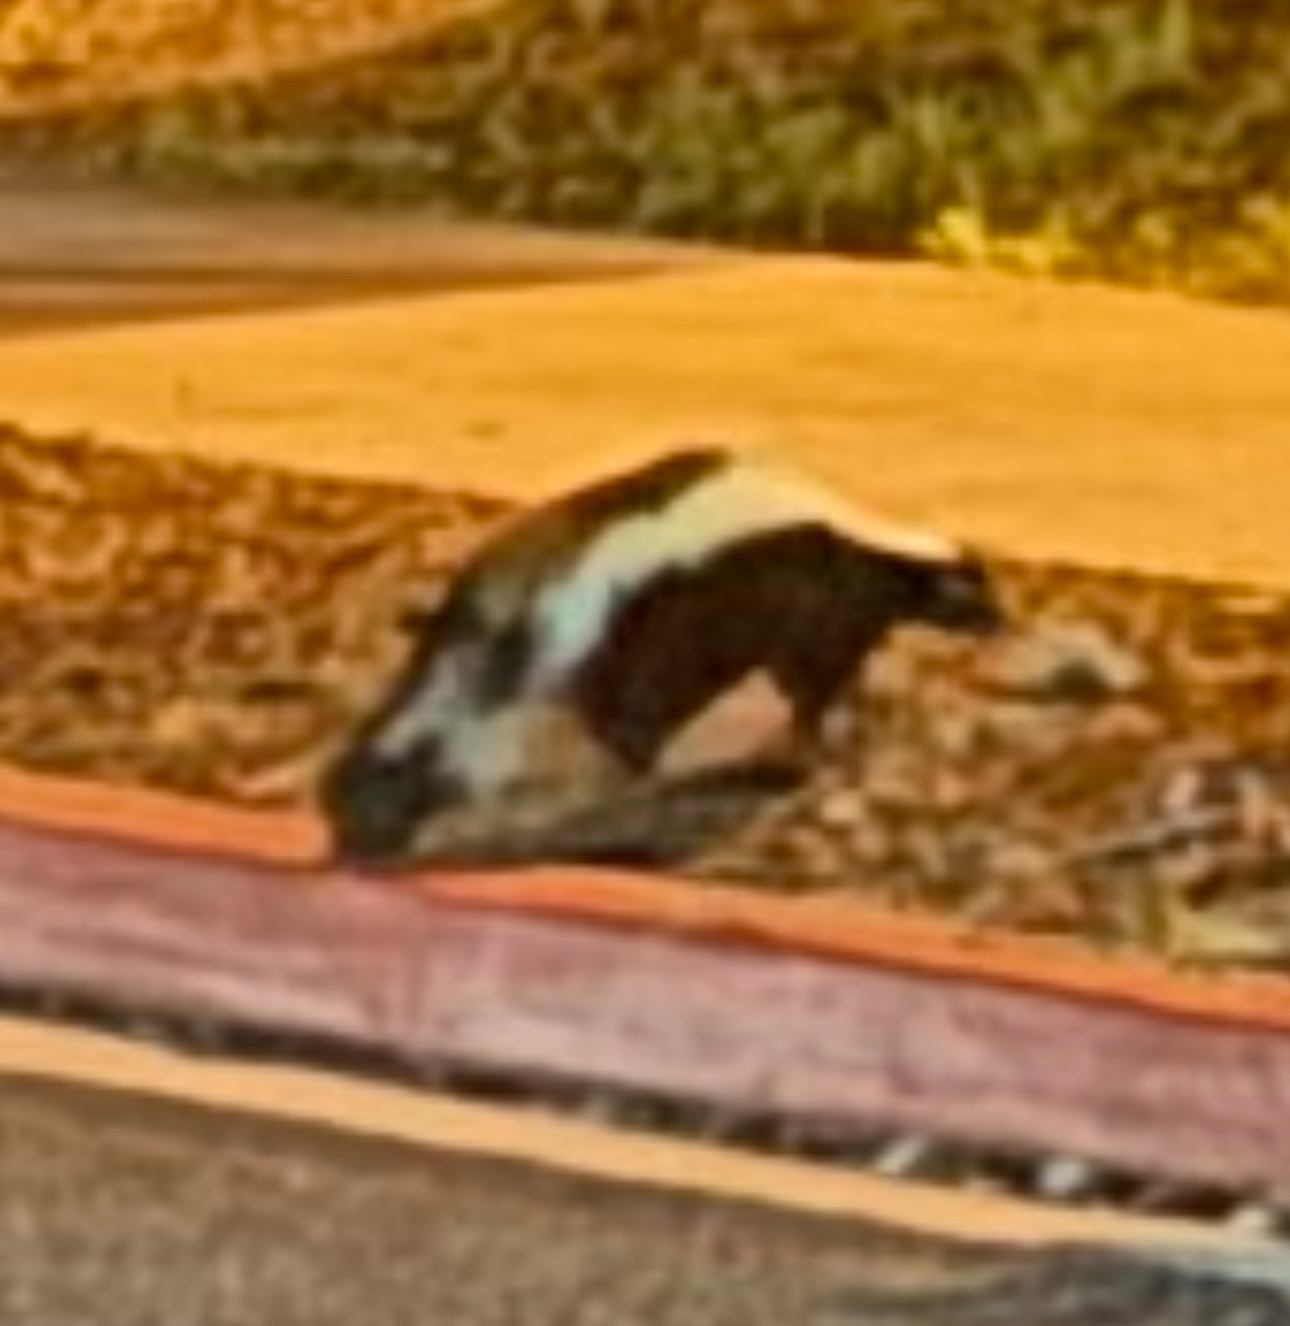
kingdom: Animalia
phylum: Chordata
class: Mammalia
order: Carnivora
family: Mephitidae
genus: Mephitis
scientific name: Mephitis mephitis
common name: Striped skunk
